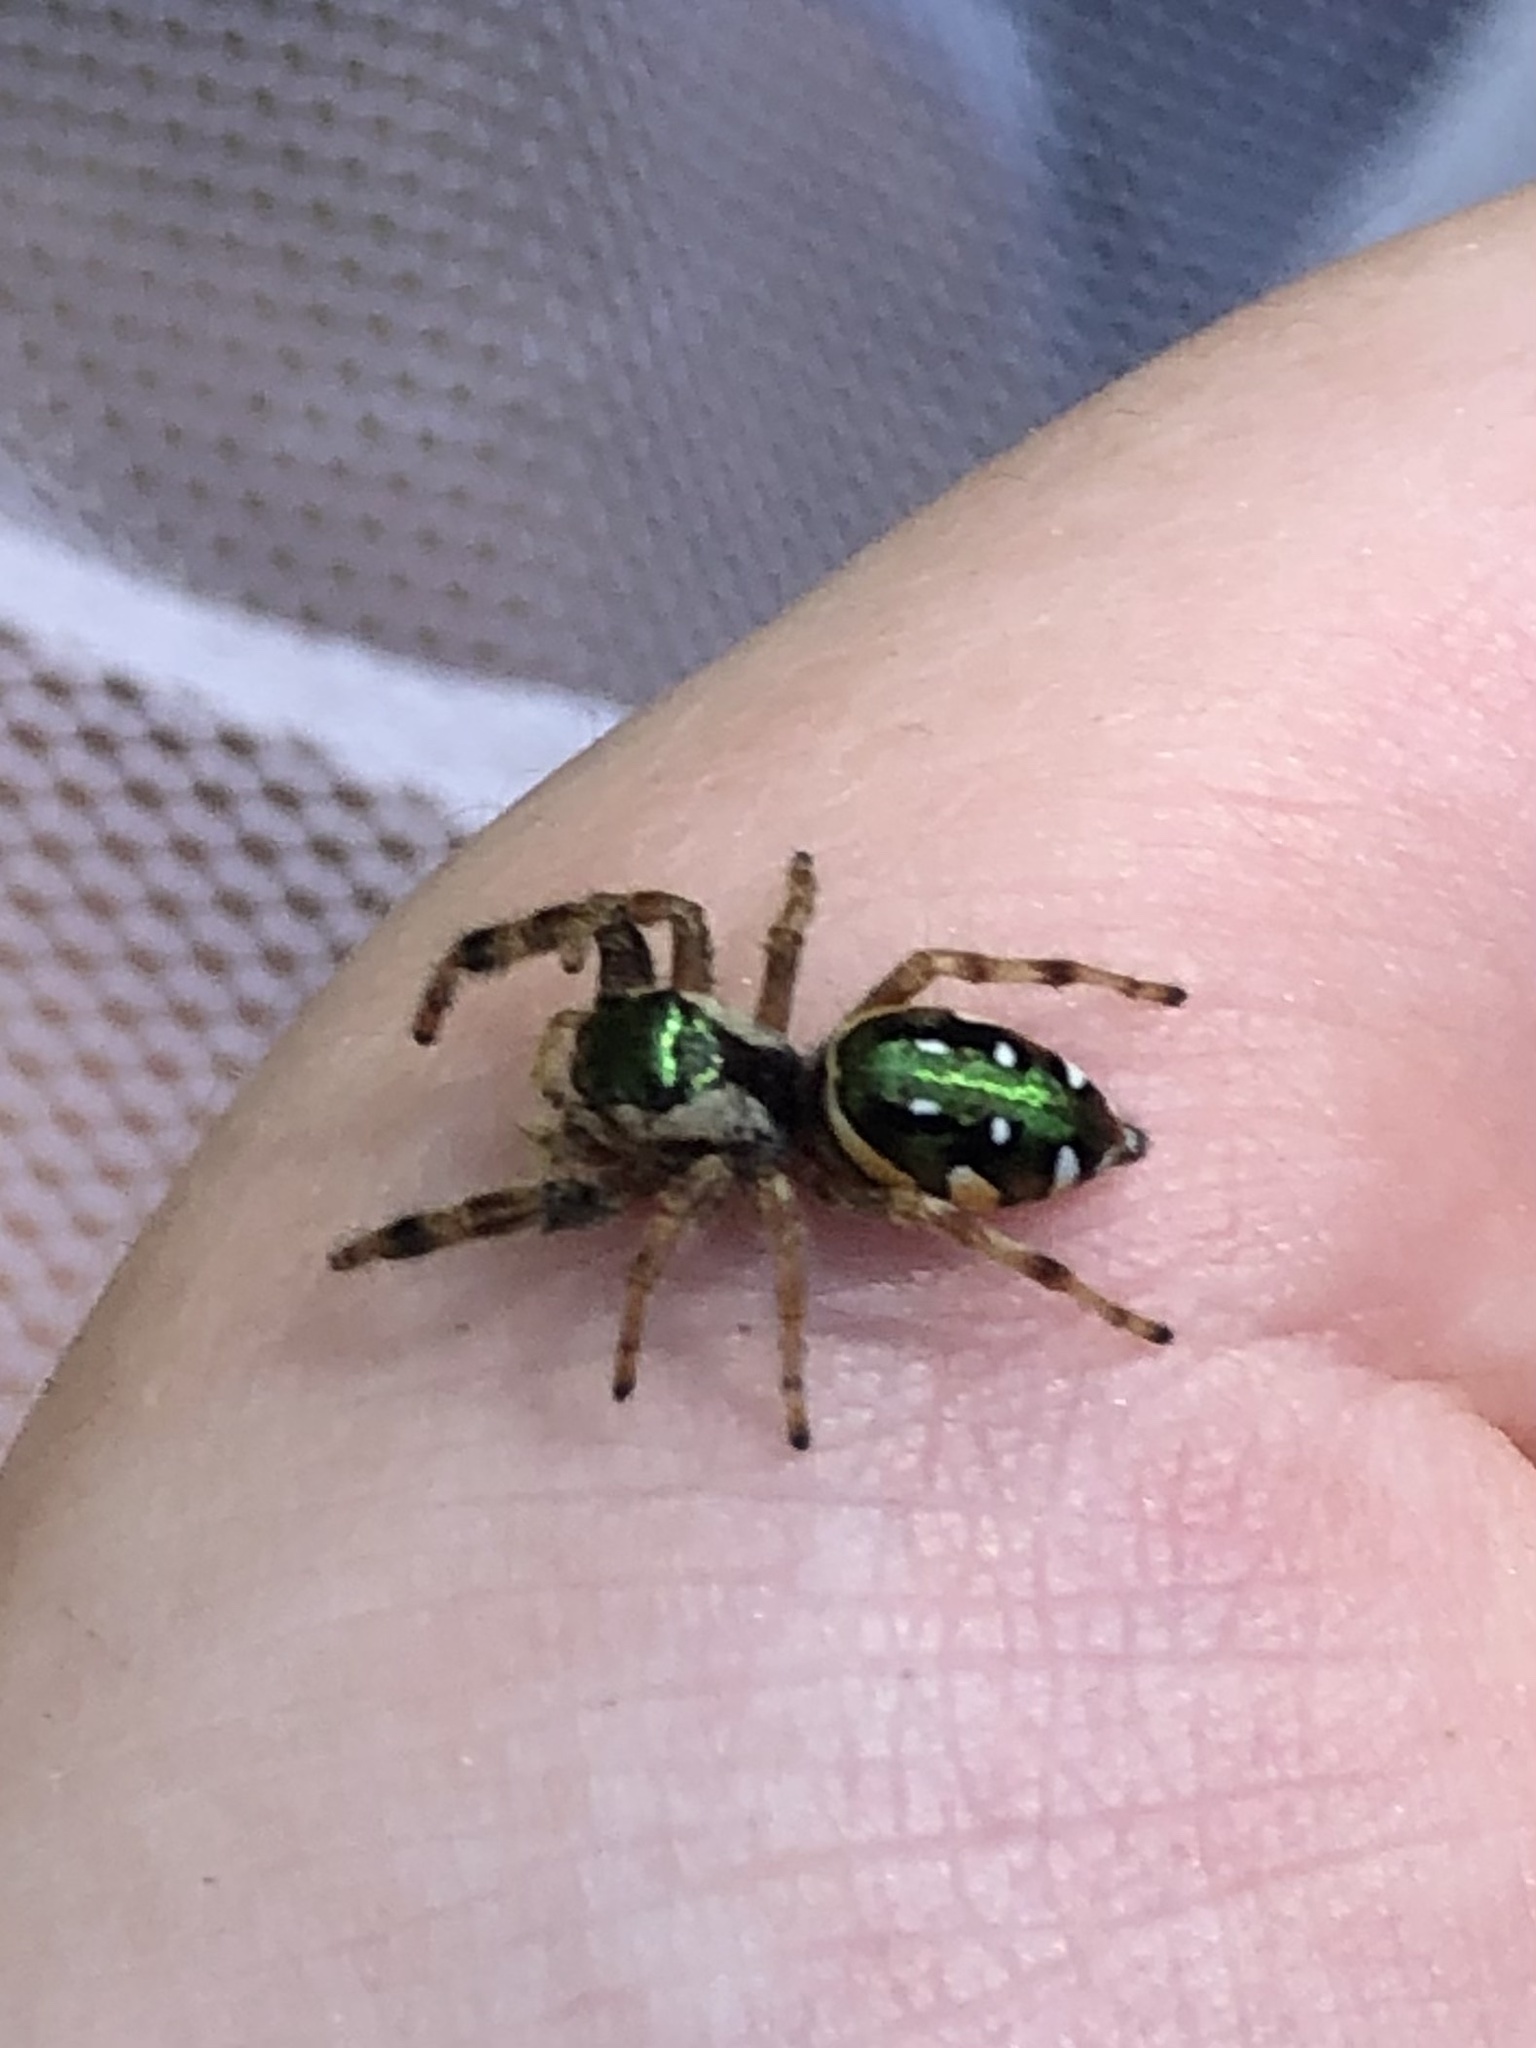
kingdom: Animalia
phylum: Arthropoda
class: Arachnida
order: Araneae
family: Salticidae
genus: Paraphidippus
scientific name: Paraphidippus aurantius
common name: Jumping spiders
